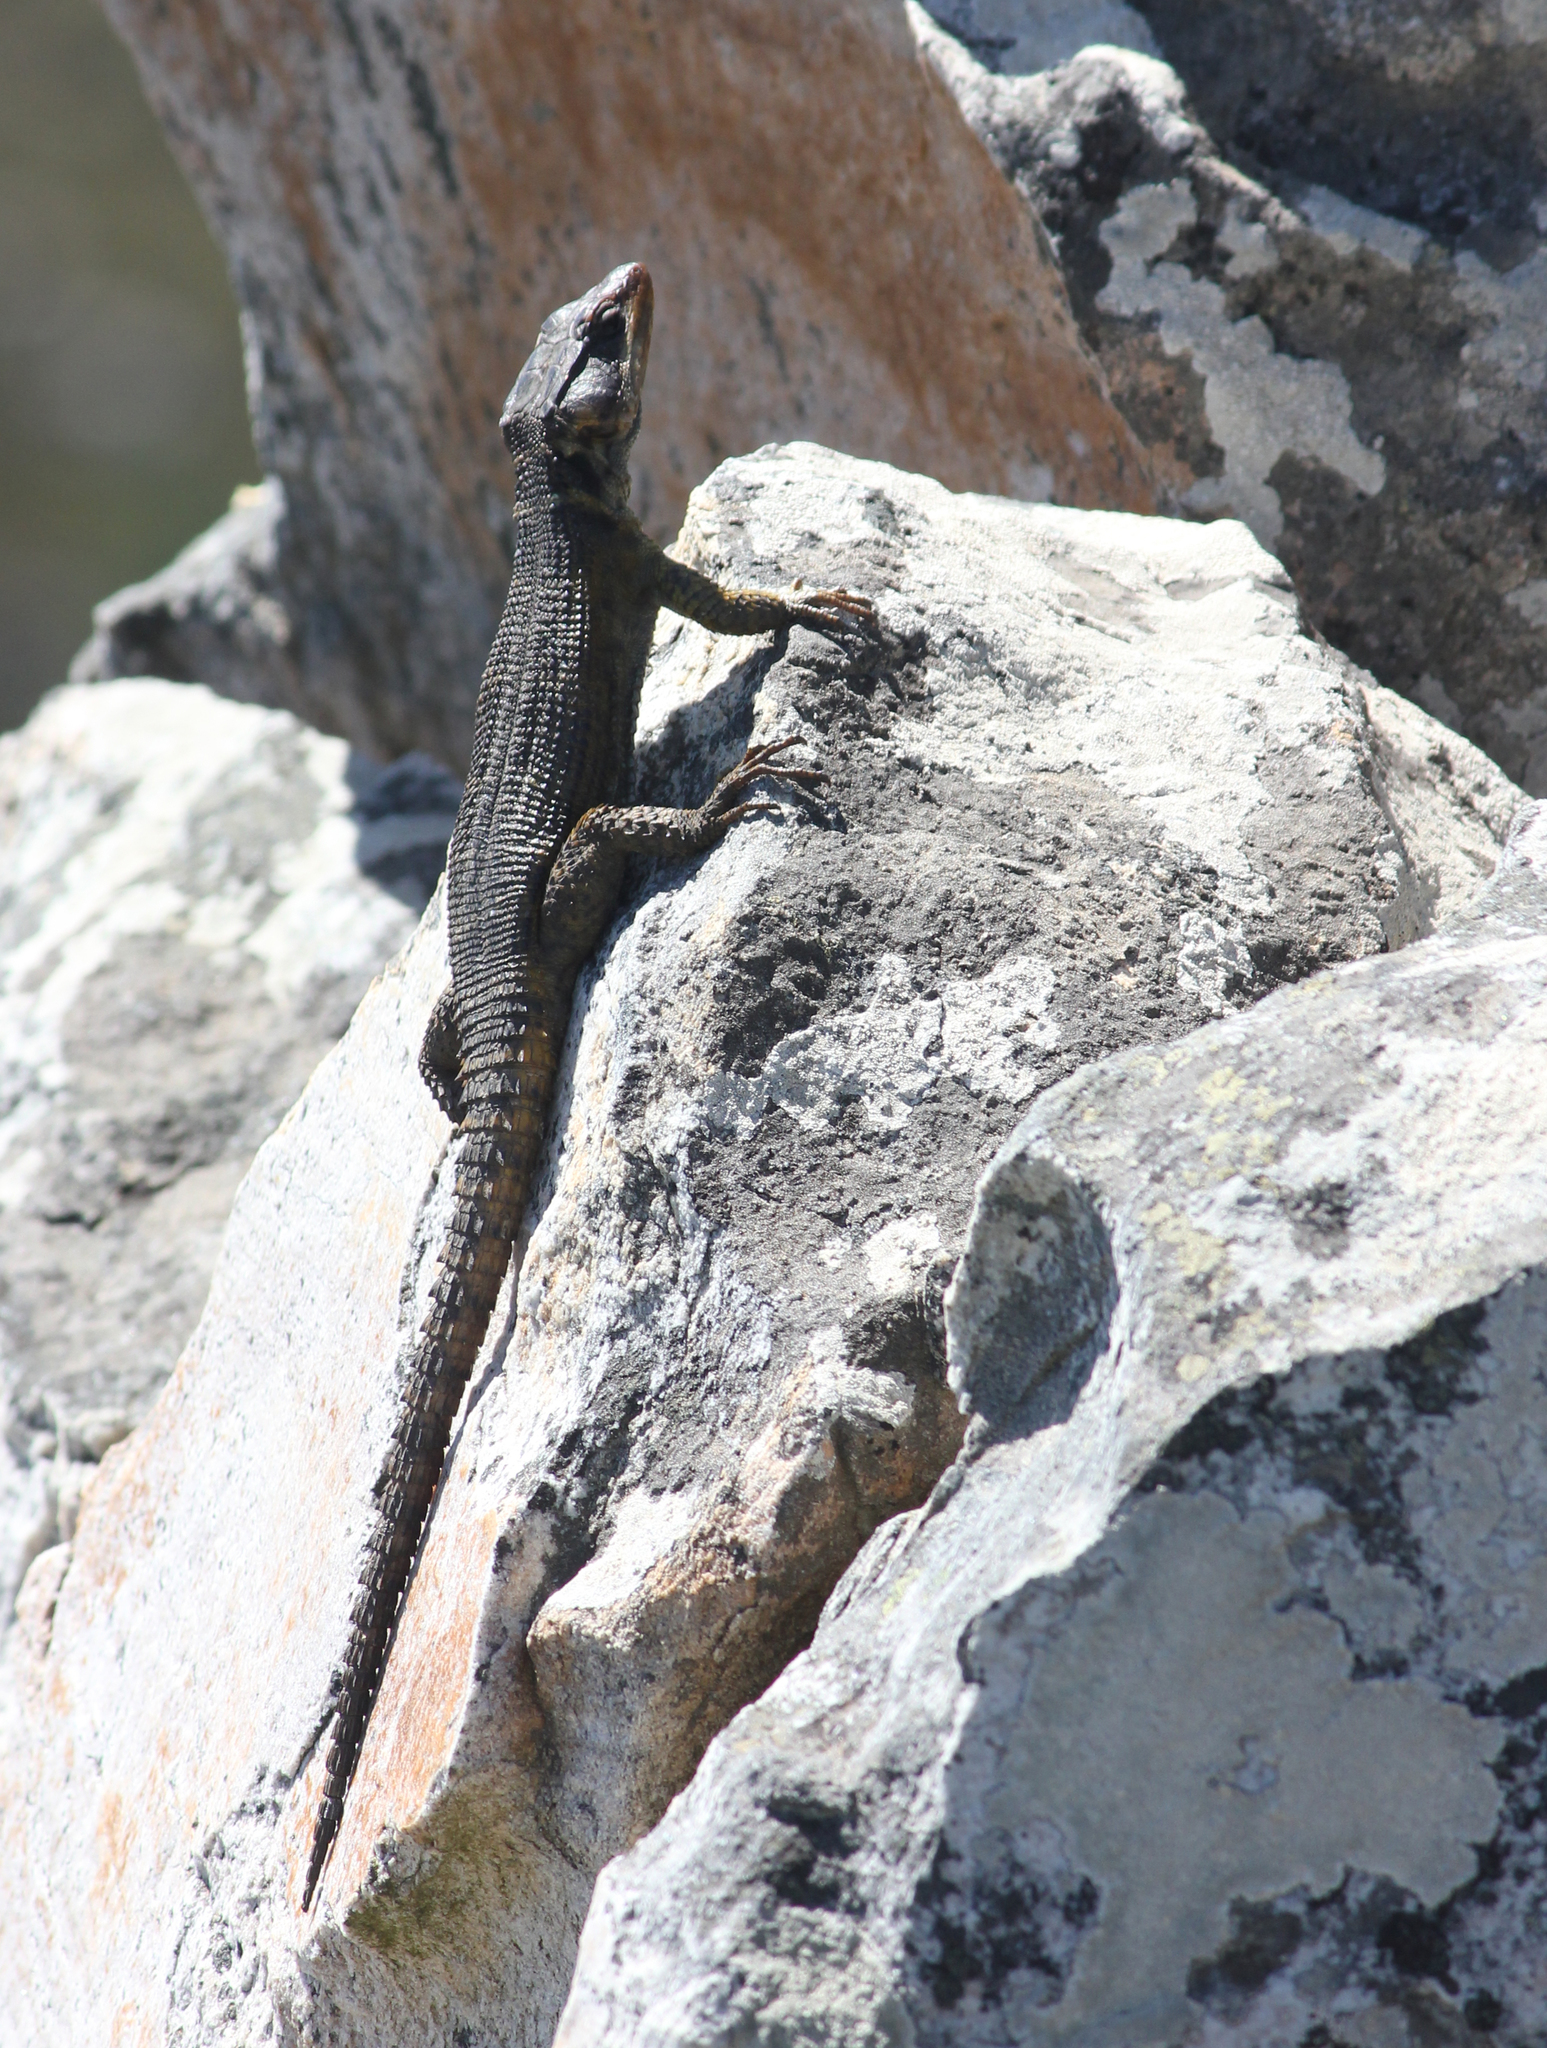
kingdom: Animalia
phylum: Chordata
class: Squamata
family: Cordylidae
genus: Pseudocordylus
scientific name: Pseudocordylus microlepidotus
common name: Cape crag lizard
